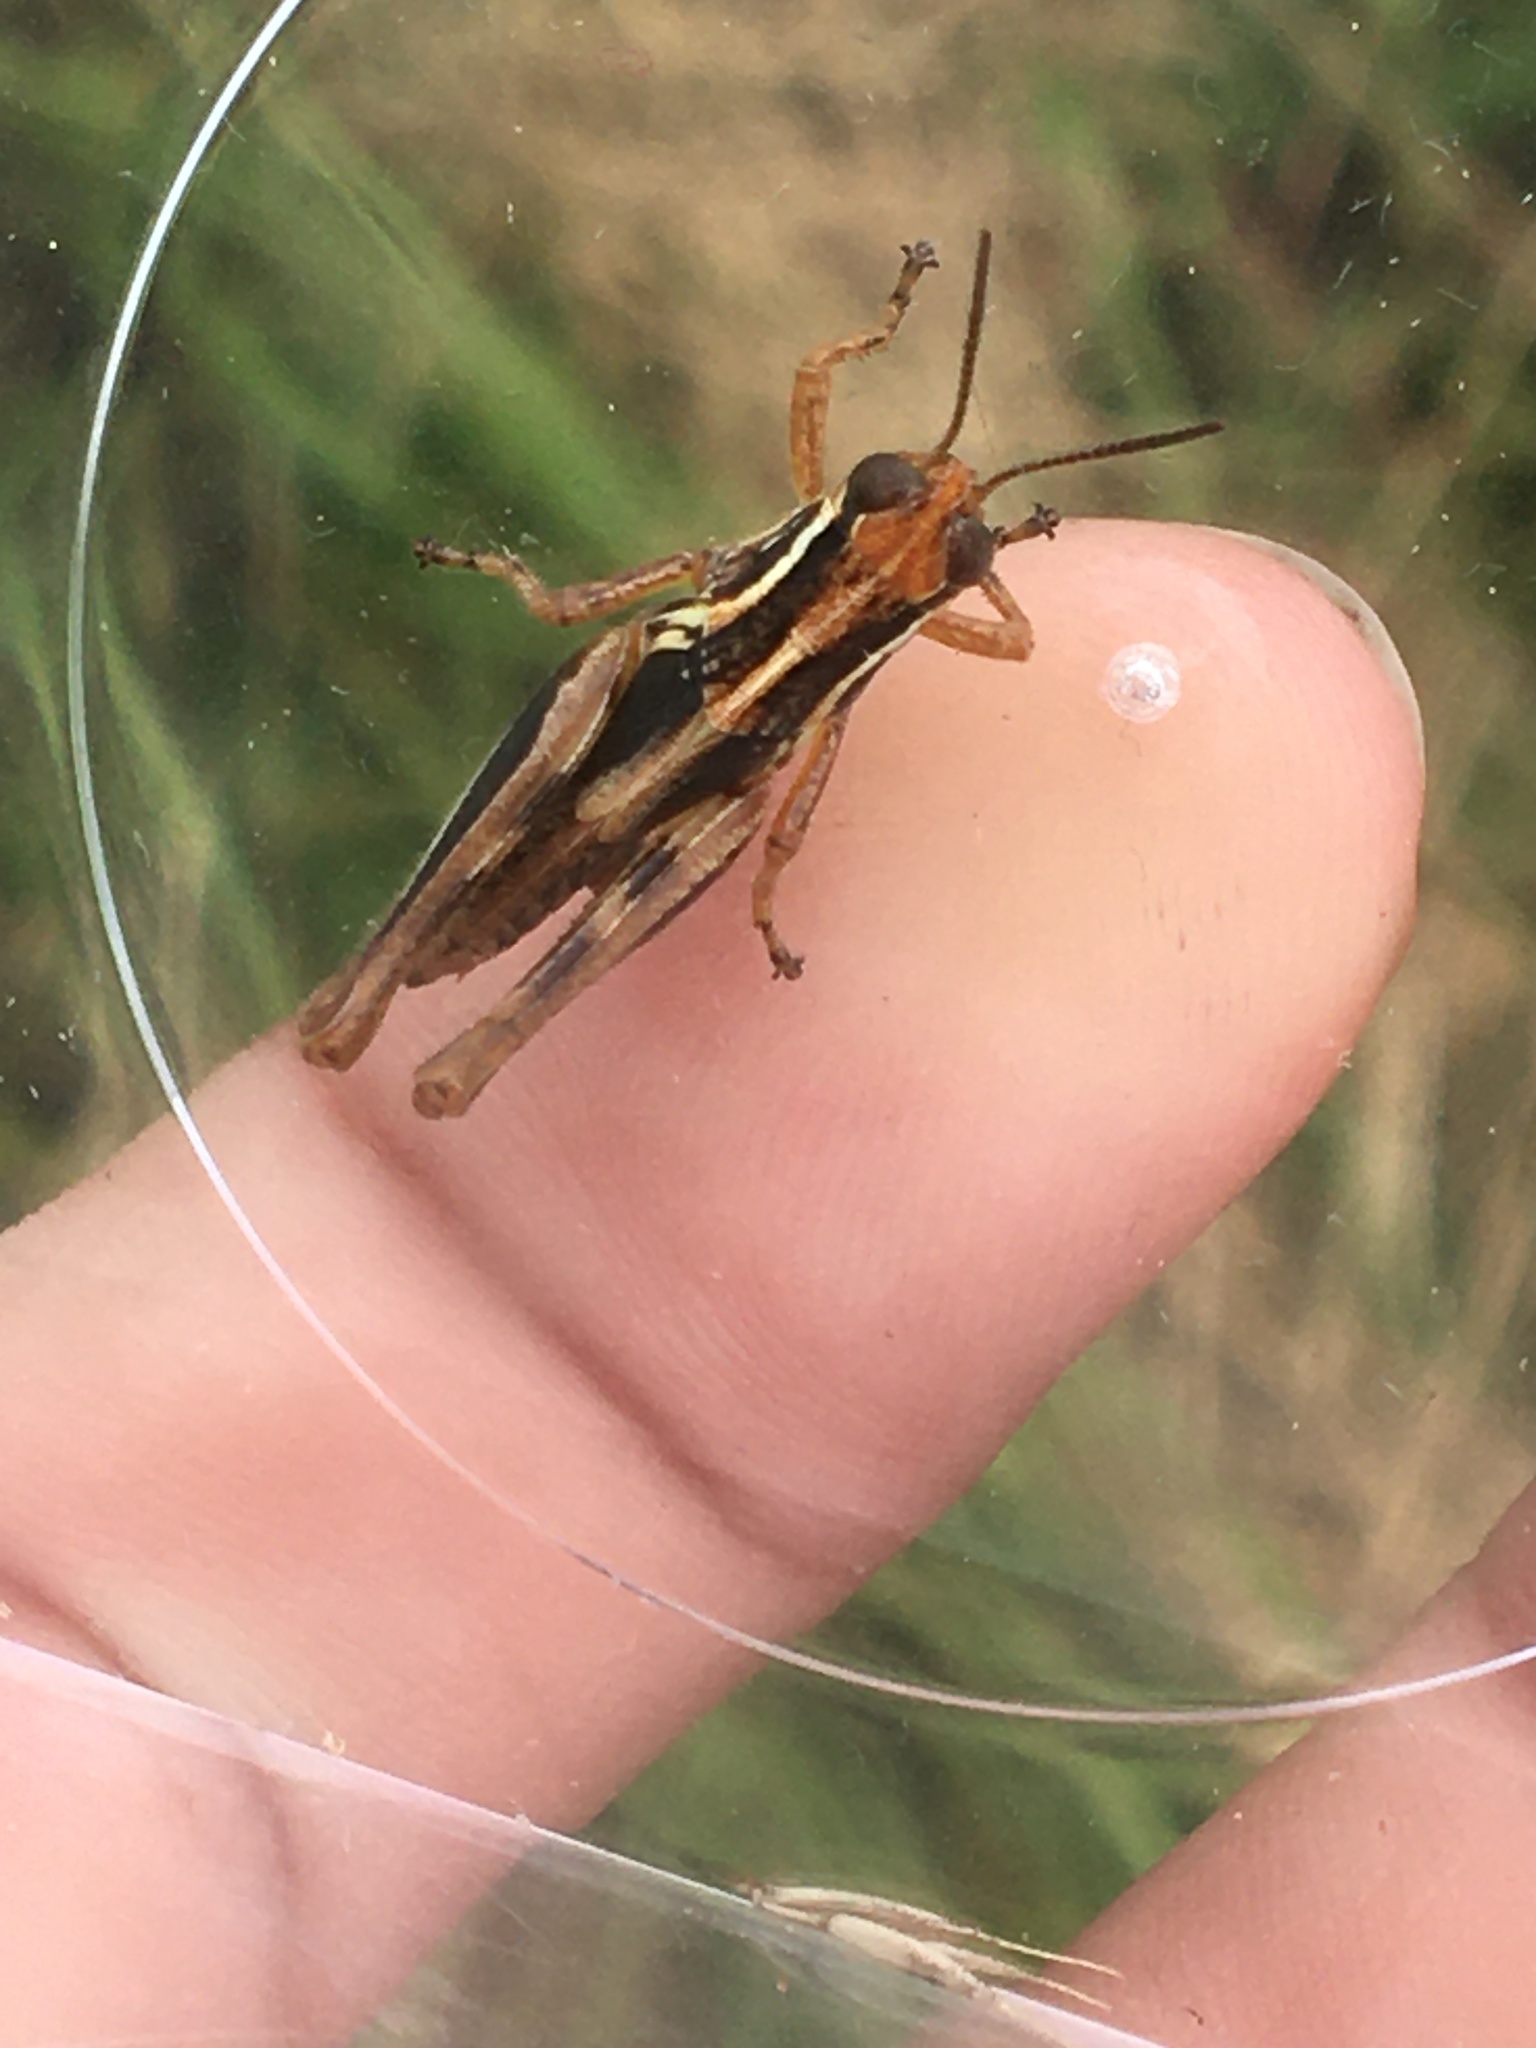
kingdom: Animalia
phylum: Arthropoda
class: Insecta
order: Orthoptera
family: Acrididae
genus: Melanoplus
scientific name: Melanoplus
